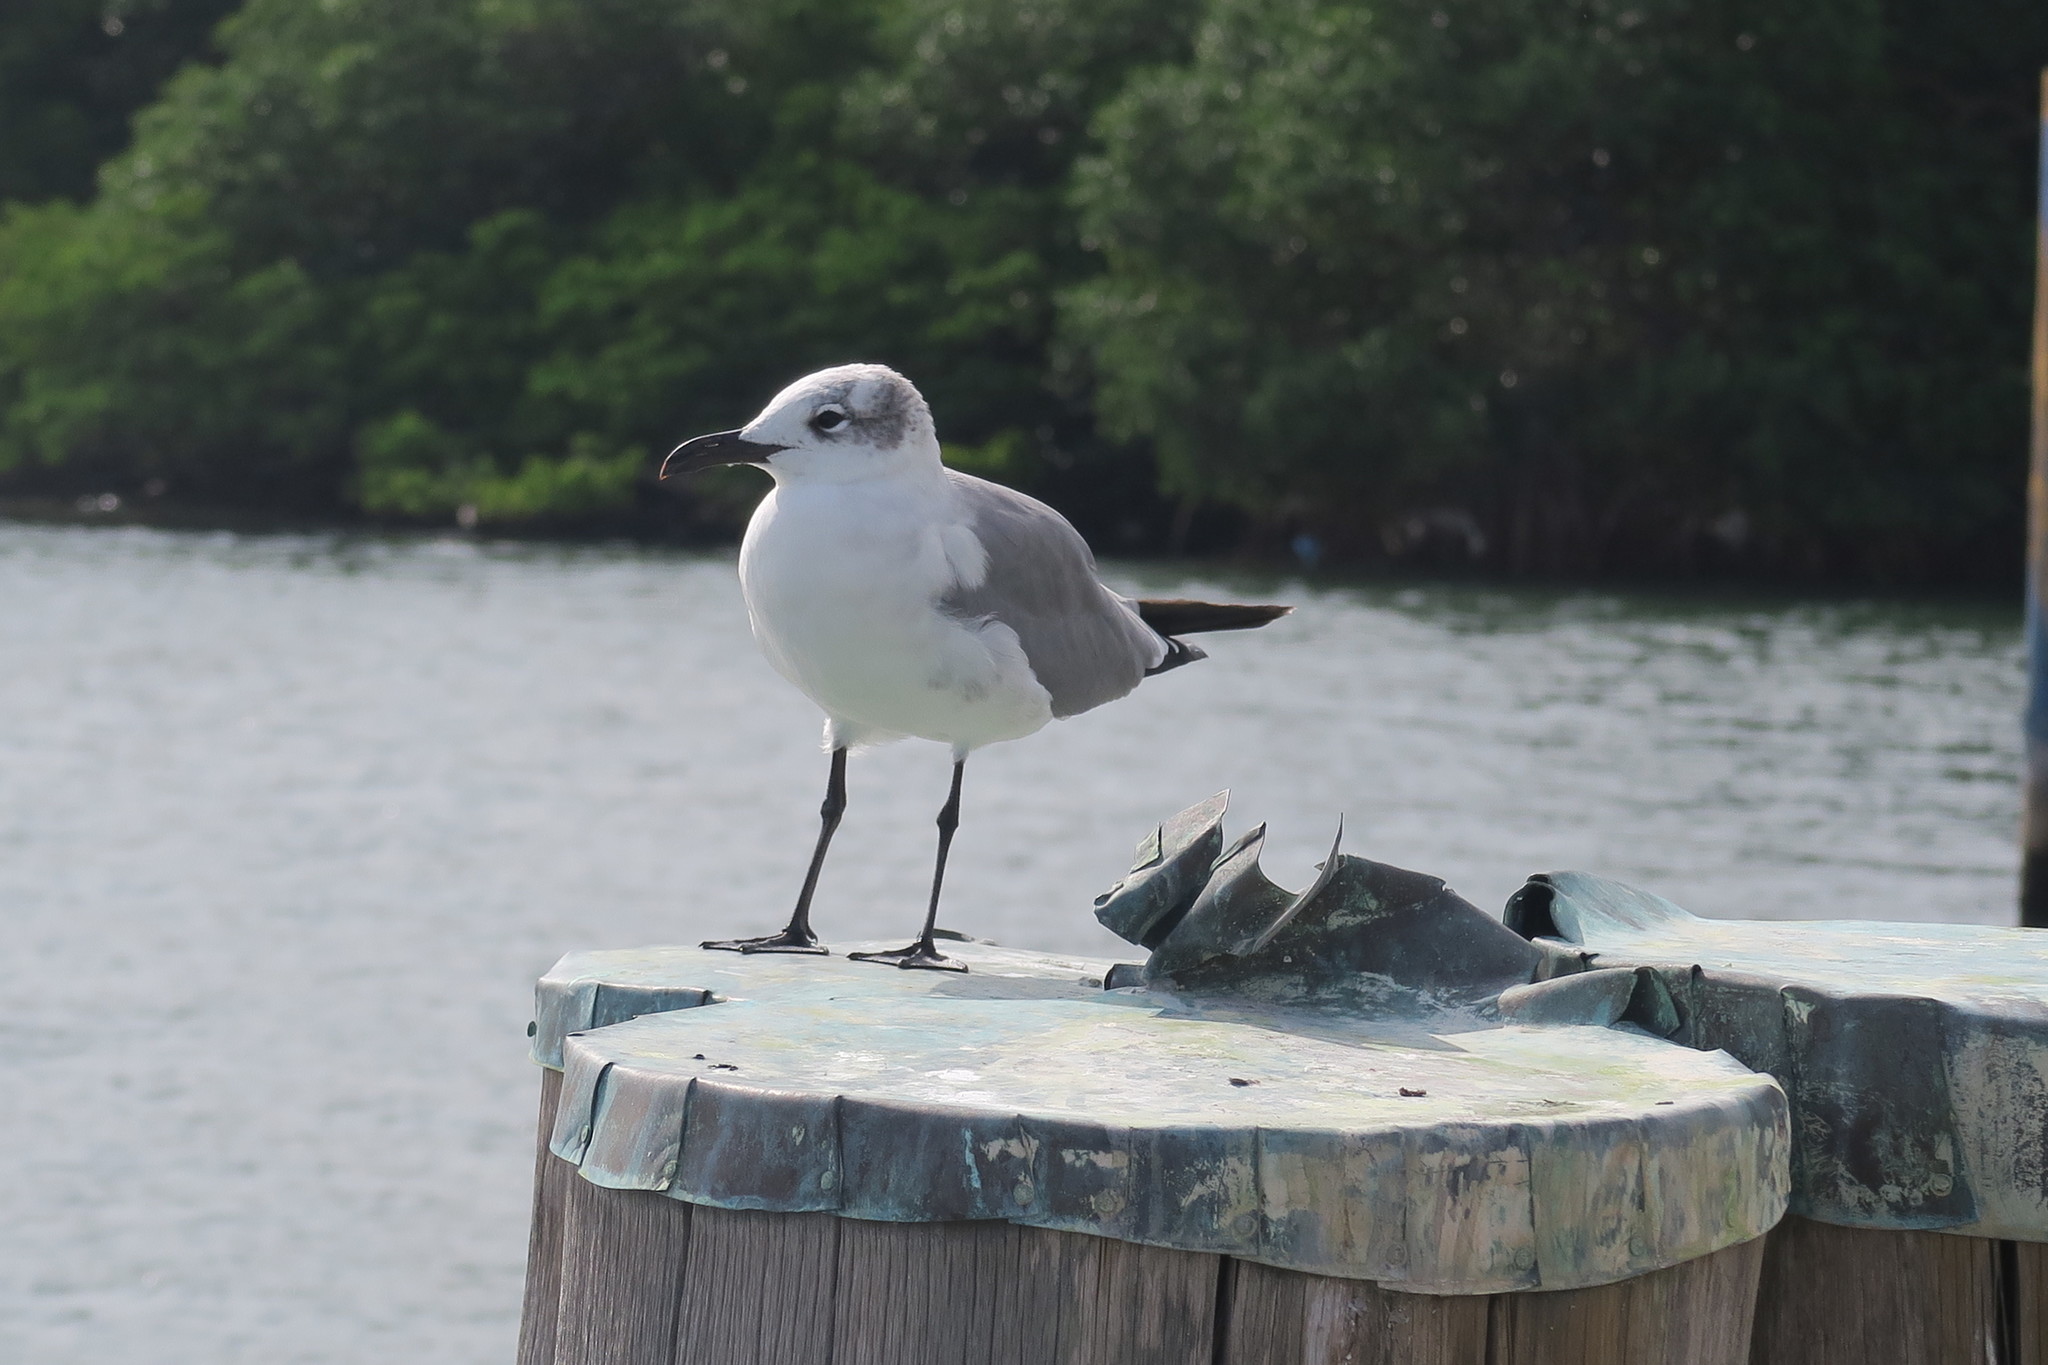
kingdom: Animalia
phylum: Chordata
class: Aves
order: Charadriiformes
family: Laridae
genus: Leucophaeus
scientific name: Leucophaeus atricilla
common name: Laughing gull
